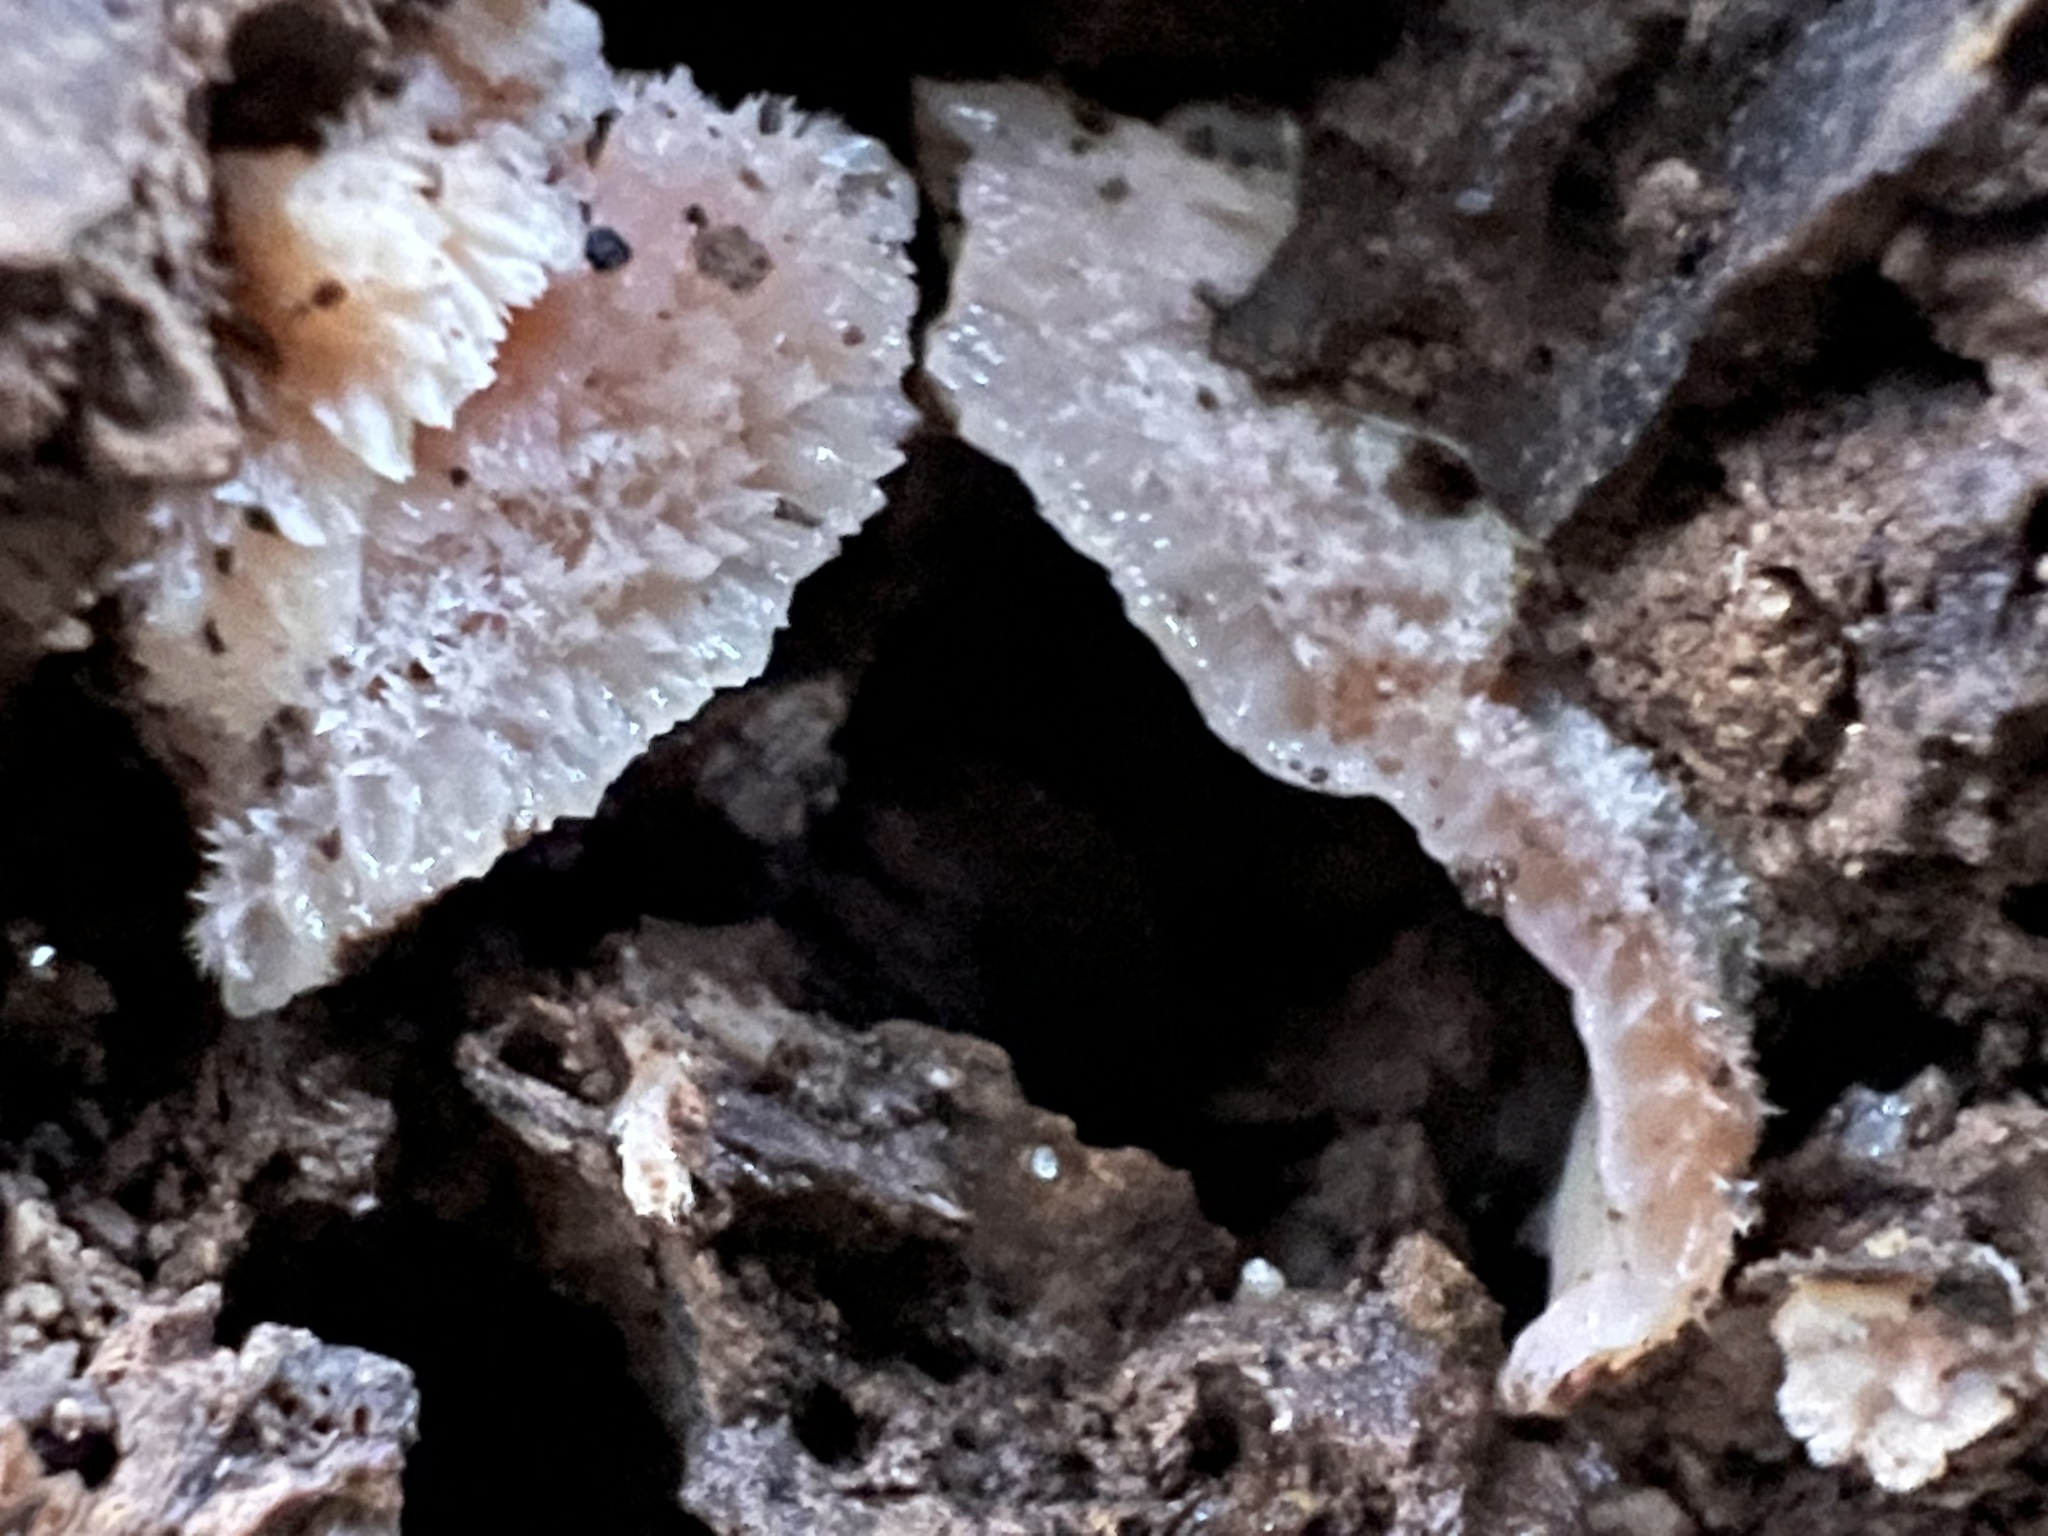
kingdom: Fungi
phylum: Basidiomycota
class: Agaricomycetes
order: Polyporales
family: Meruliaceae
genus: Phlebia
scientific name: Phlebia tremellosa
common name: Jelly rot
